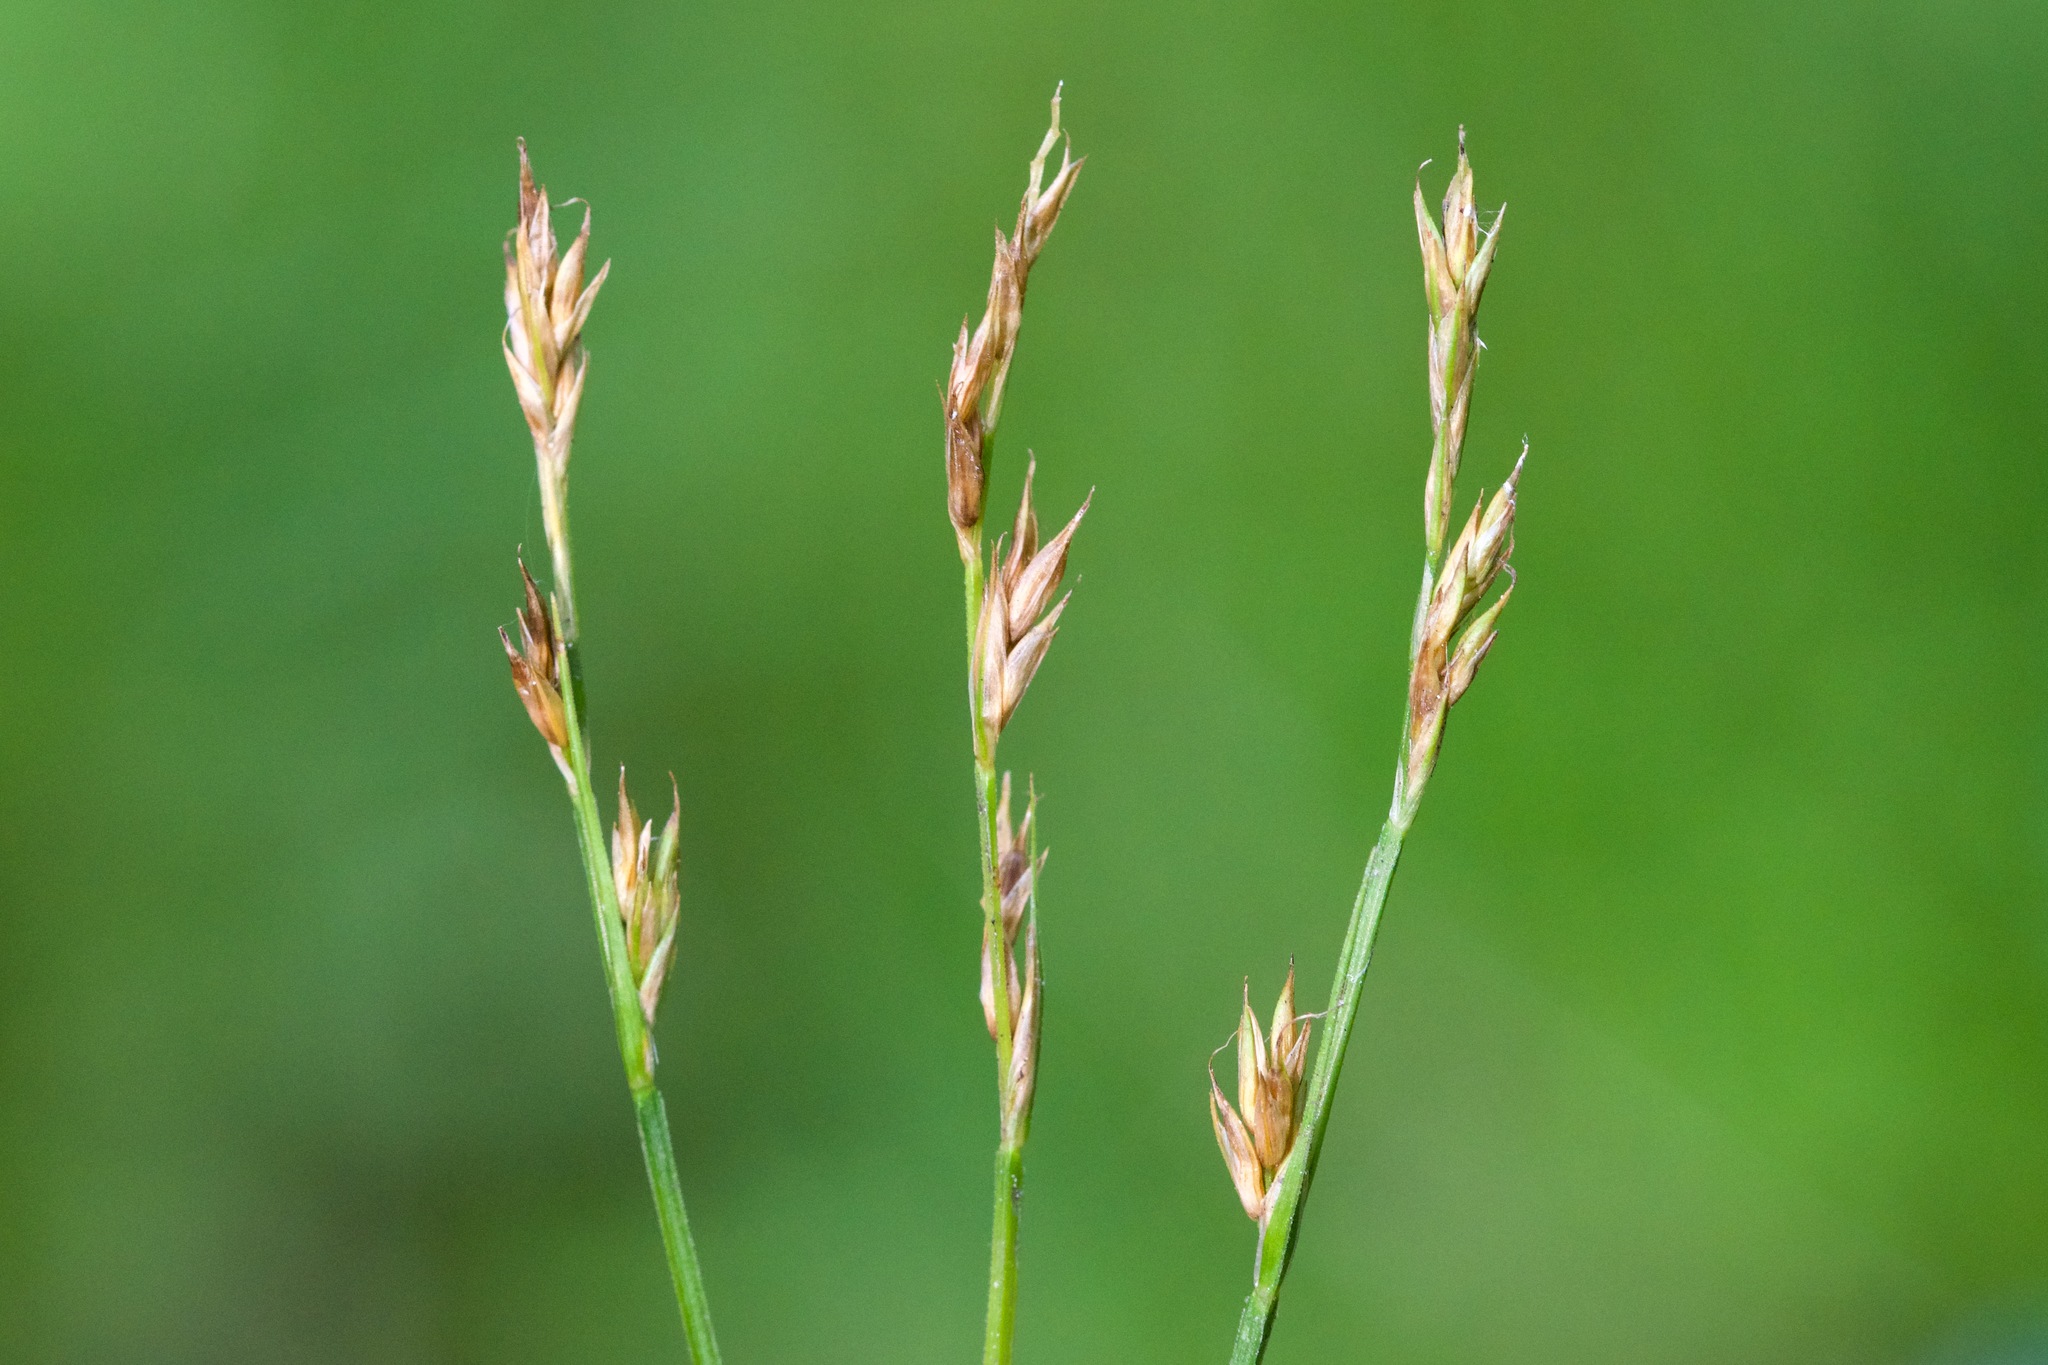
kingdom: Plantae
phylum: Tracheophyta
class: Liliopsida
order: Poales
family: Cyperaceae
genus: Carex
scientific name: Carex bromoides
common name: Brome hummock sedge
